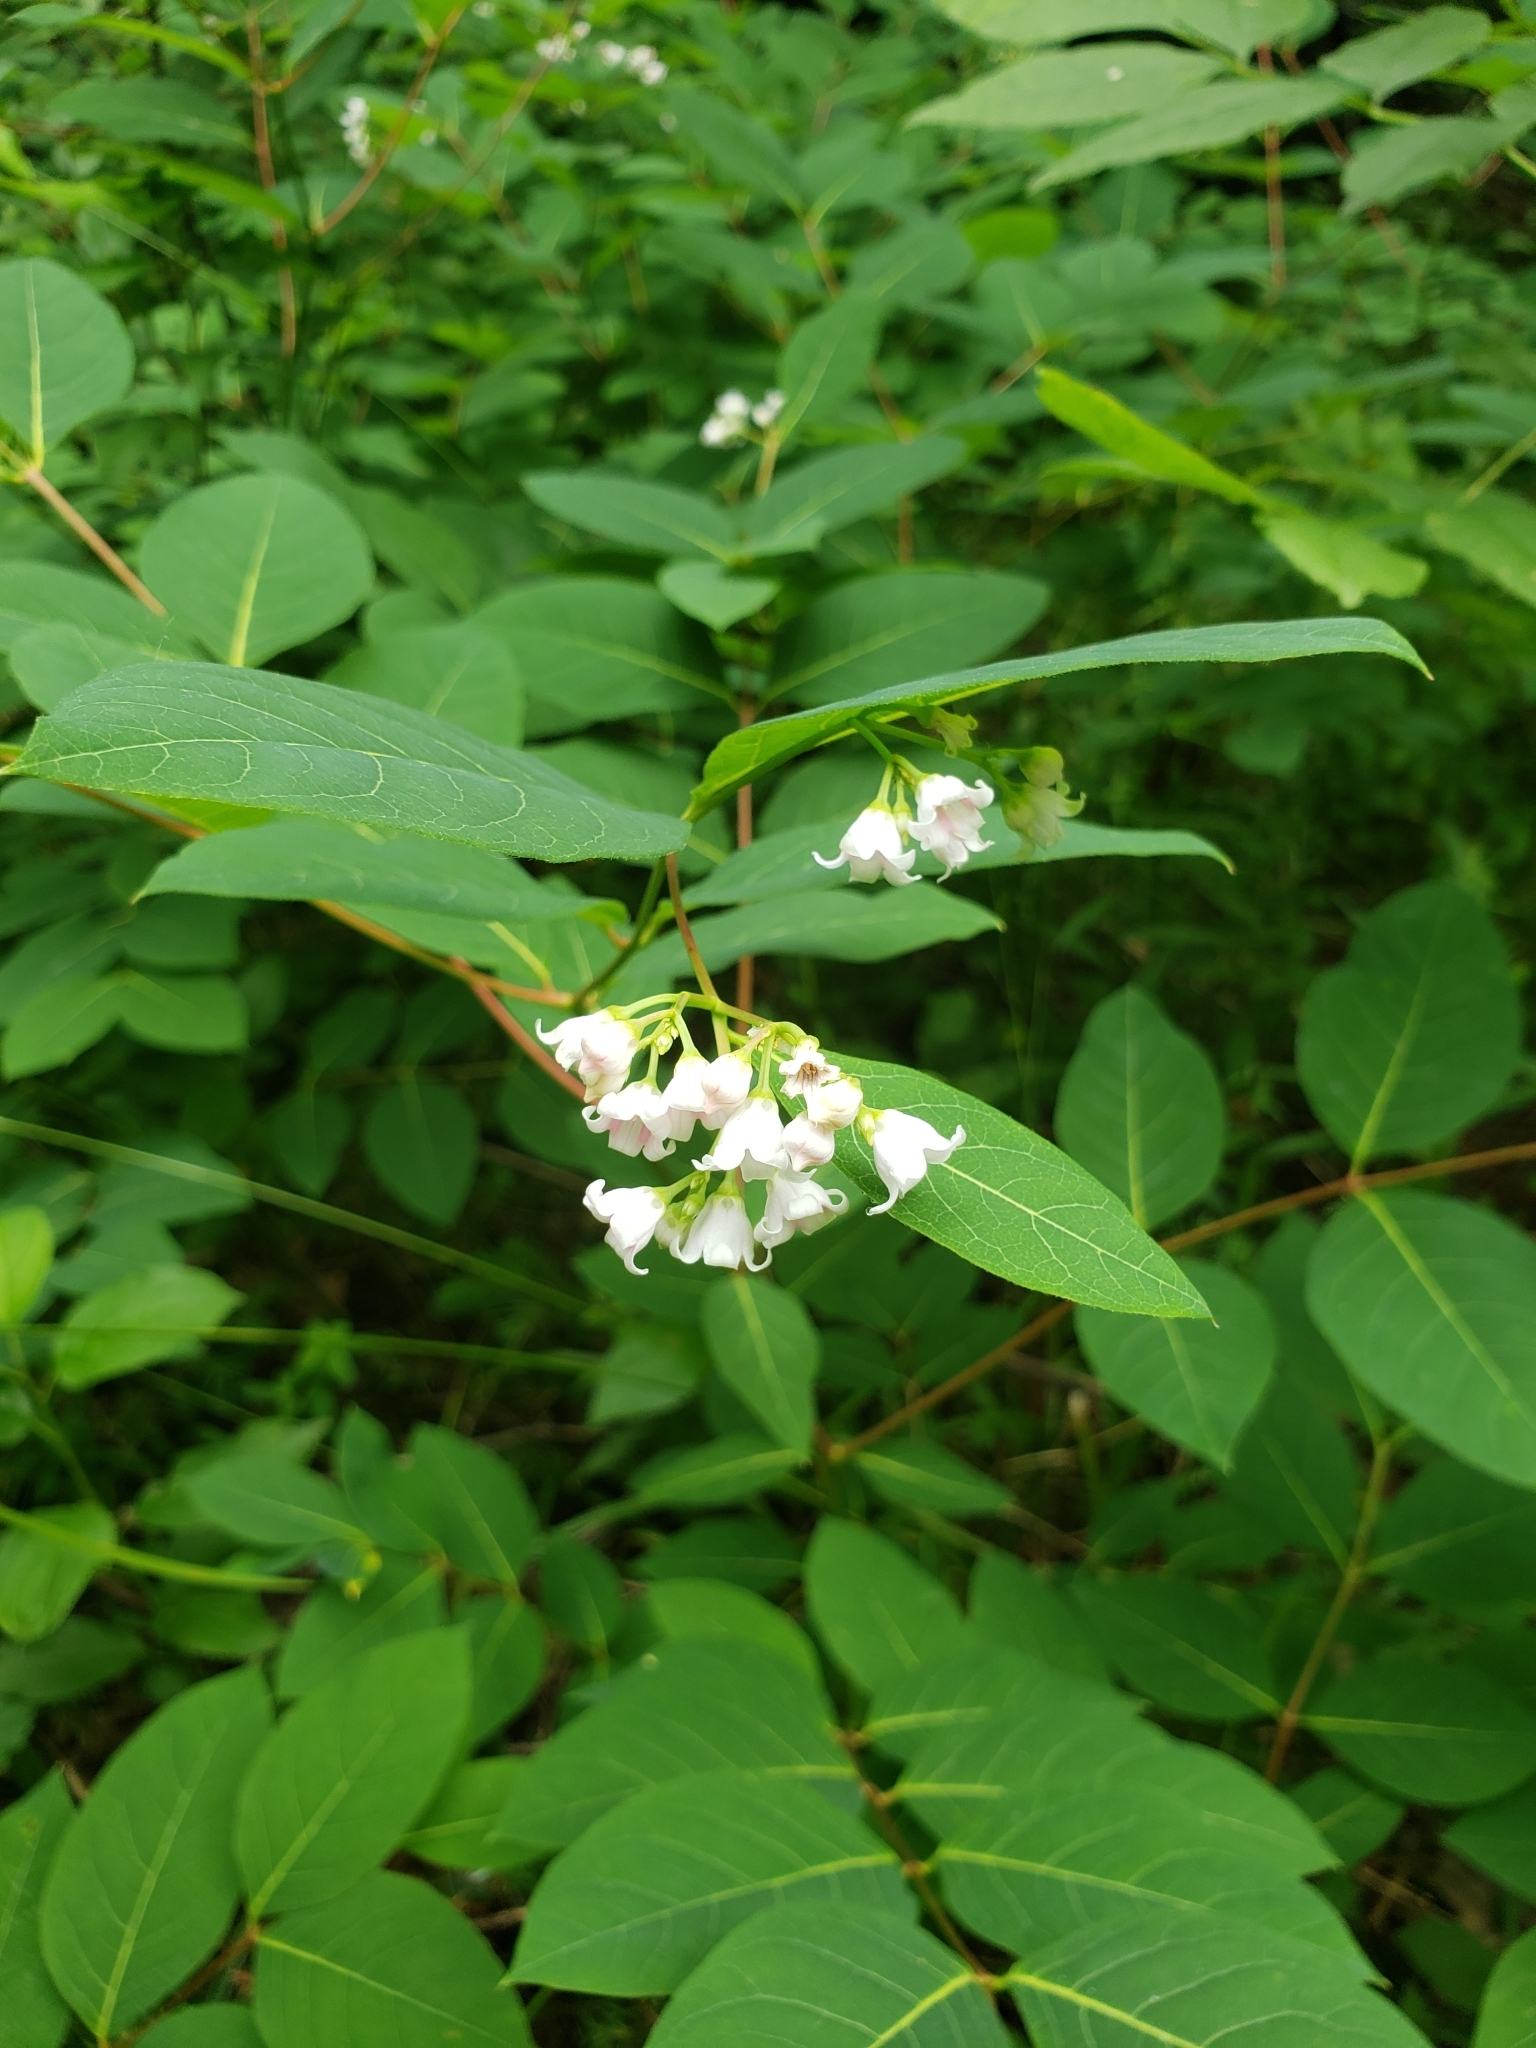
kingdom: Plantae
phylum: Tracheophyta
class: Magnoliopsida
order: Gentianales
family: Apocynaceae
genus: Apocynum
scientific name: Apocynum androsaemifolium
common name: Spreading dogbane
